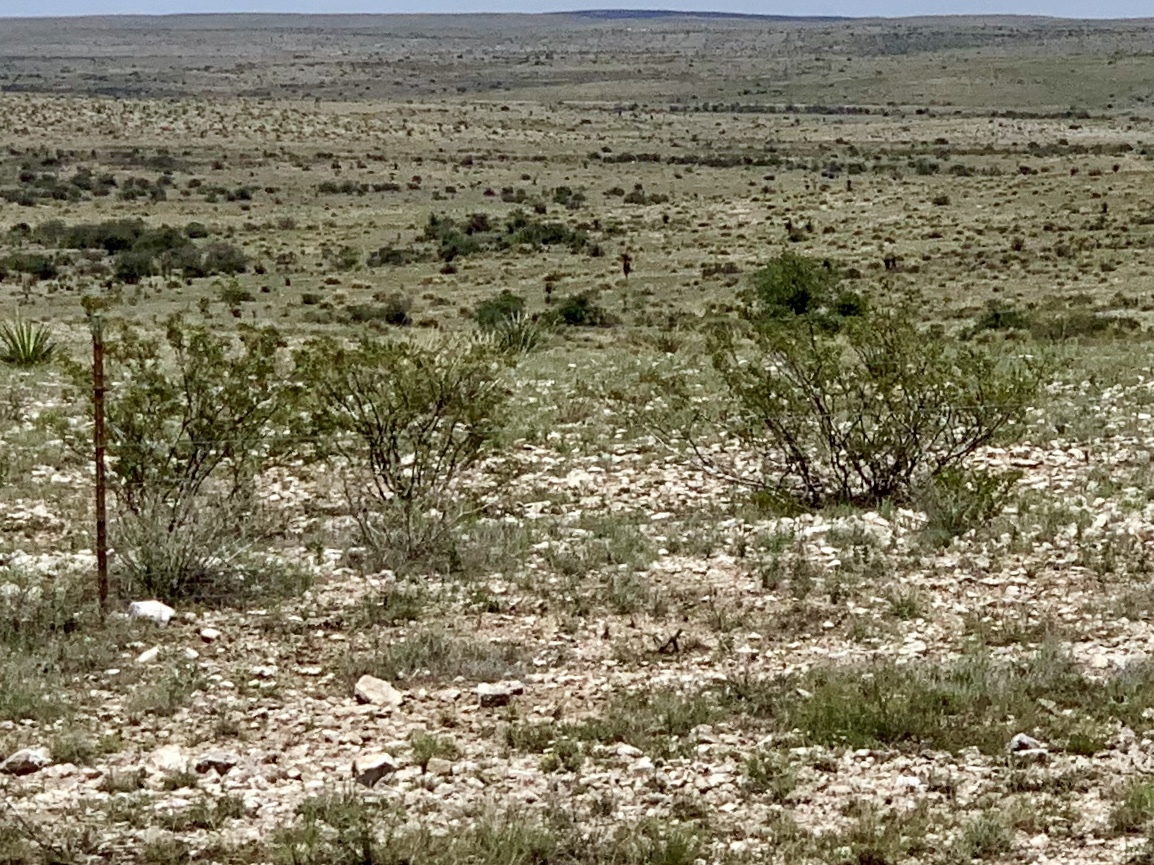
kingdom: Plantae
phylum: Tracheophyta
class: Magnoliopsida
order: Zygophyllales
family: Zygophyllaceae
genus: Larrea
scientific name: Larrea tridentata
